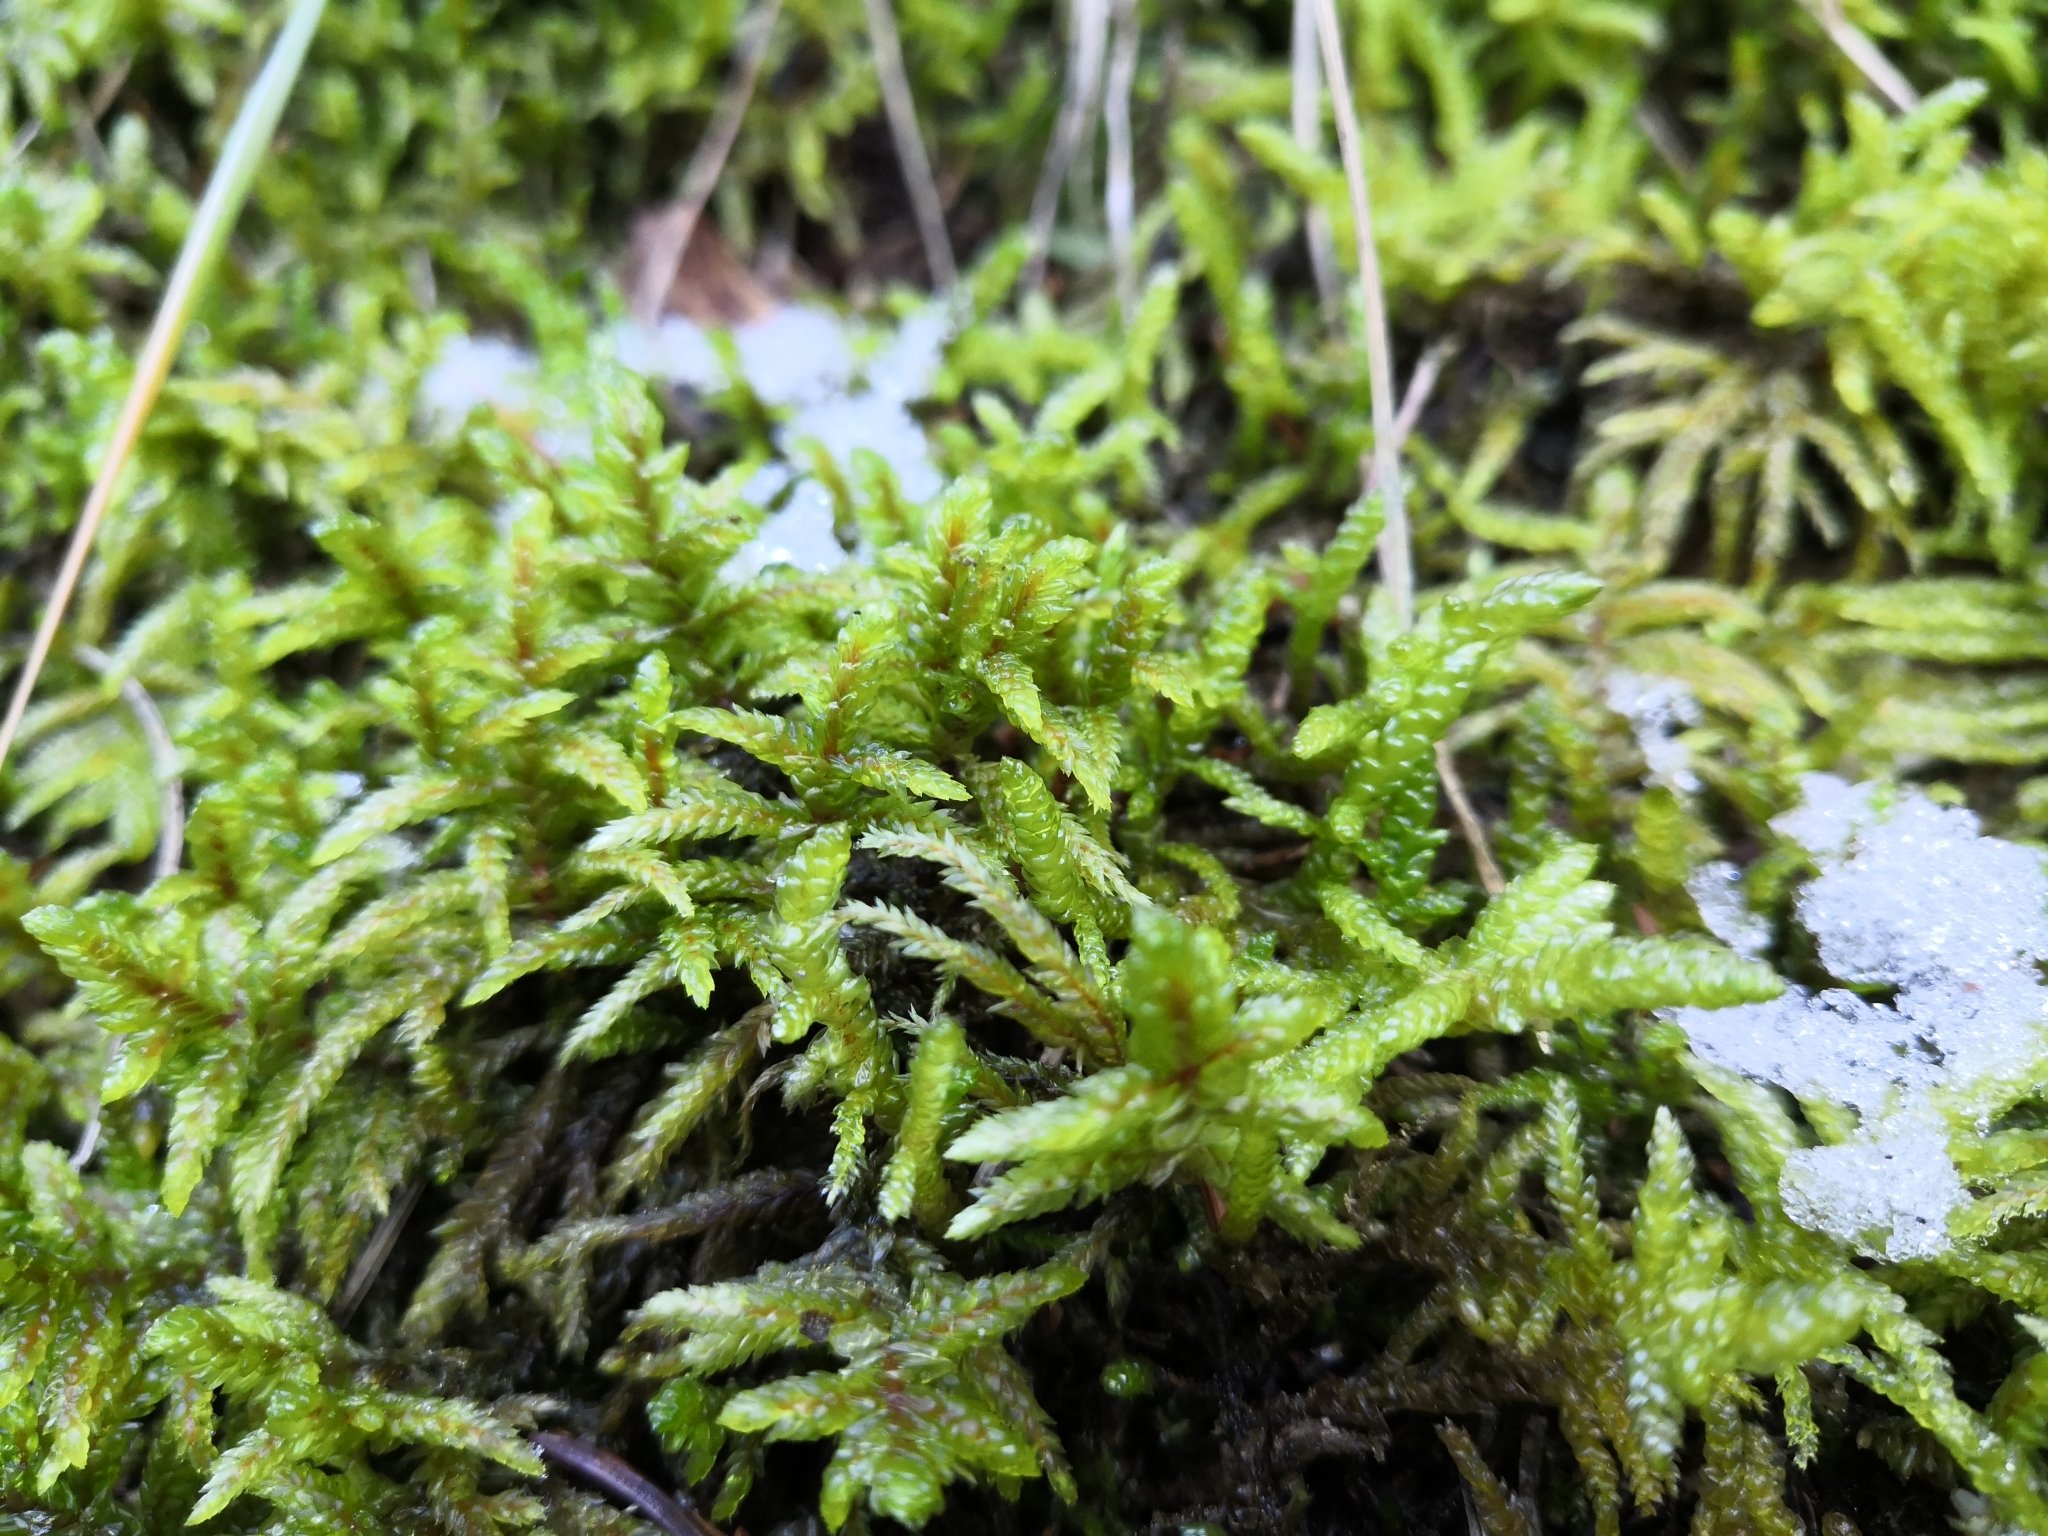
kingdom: Plantae
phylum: Bryophyta
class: Bryopsida
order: Hypnales
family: Hylocomiaceae
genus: Pleurozium
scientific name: Pleurozium schreberi
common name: Red-stemmed feather moss
